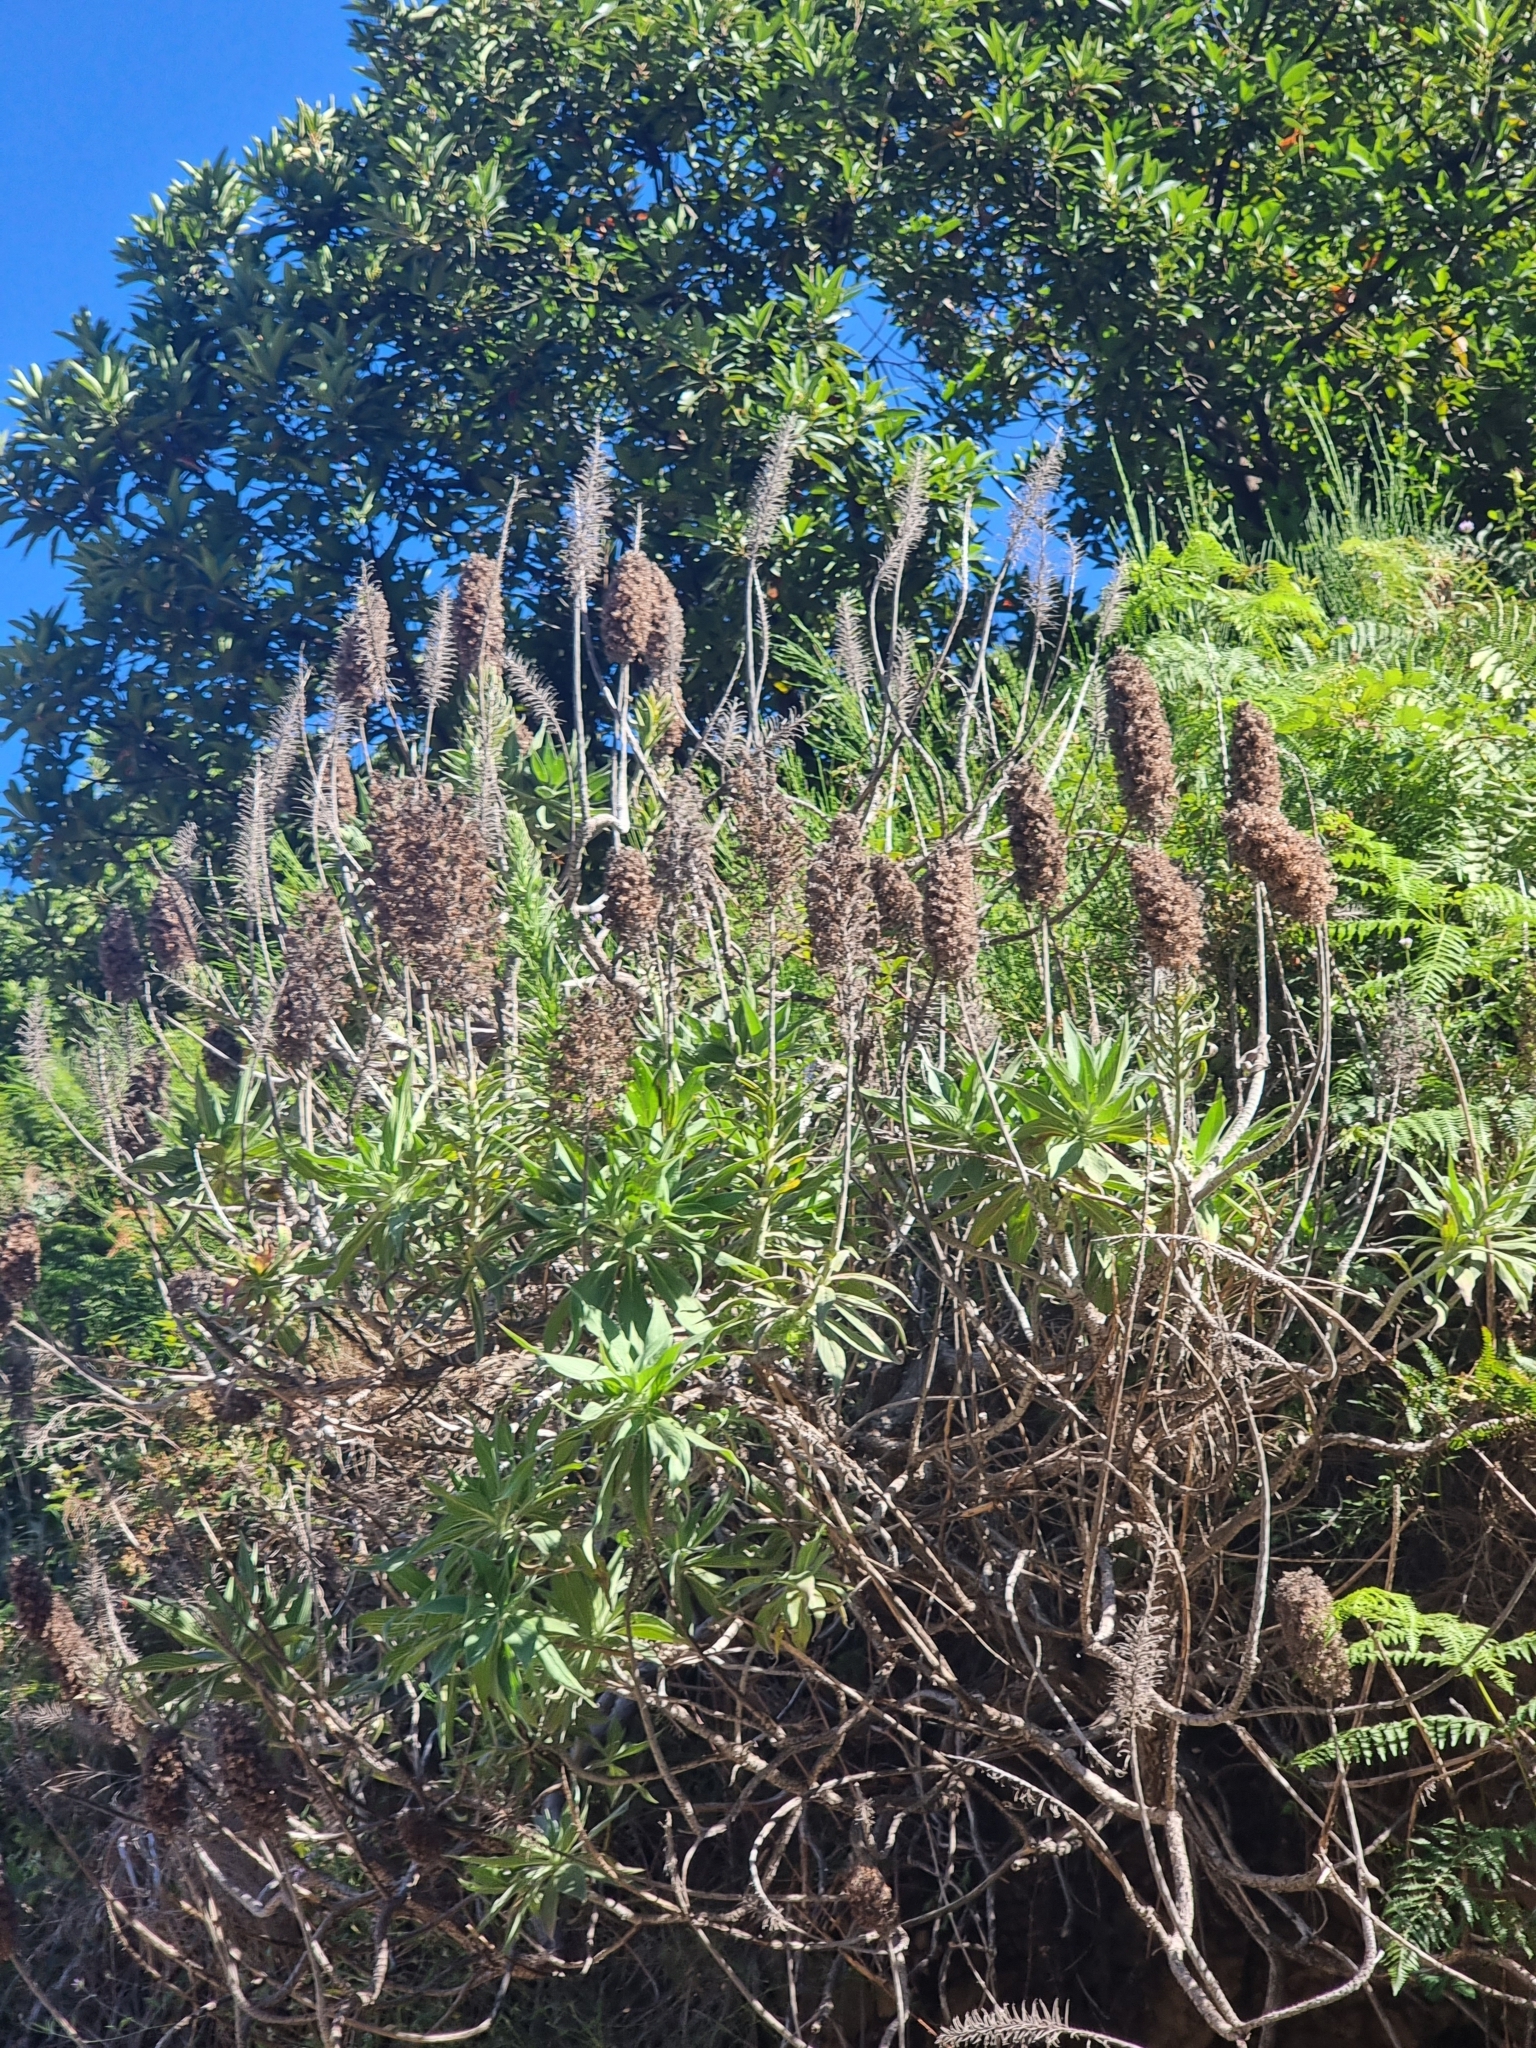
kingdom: Plantae
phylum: Tracheophyta
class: Magnoliopsida
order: Boraginales
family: Boraginaceae
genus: Echium
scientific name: Echium candicans
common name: Pride of madeira
